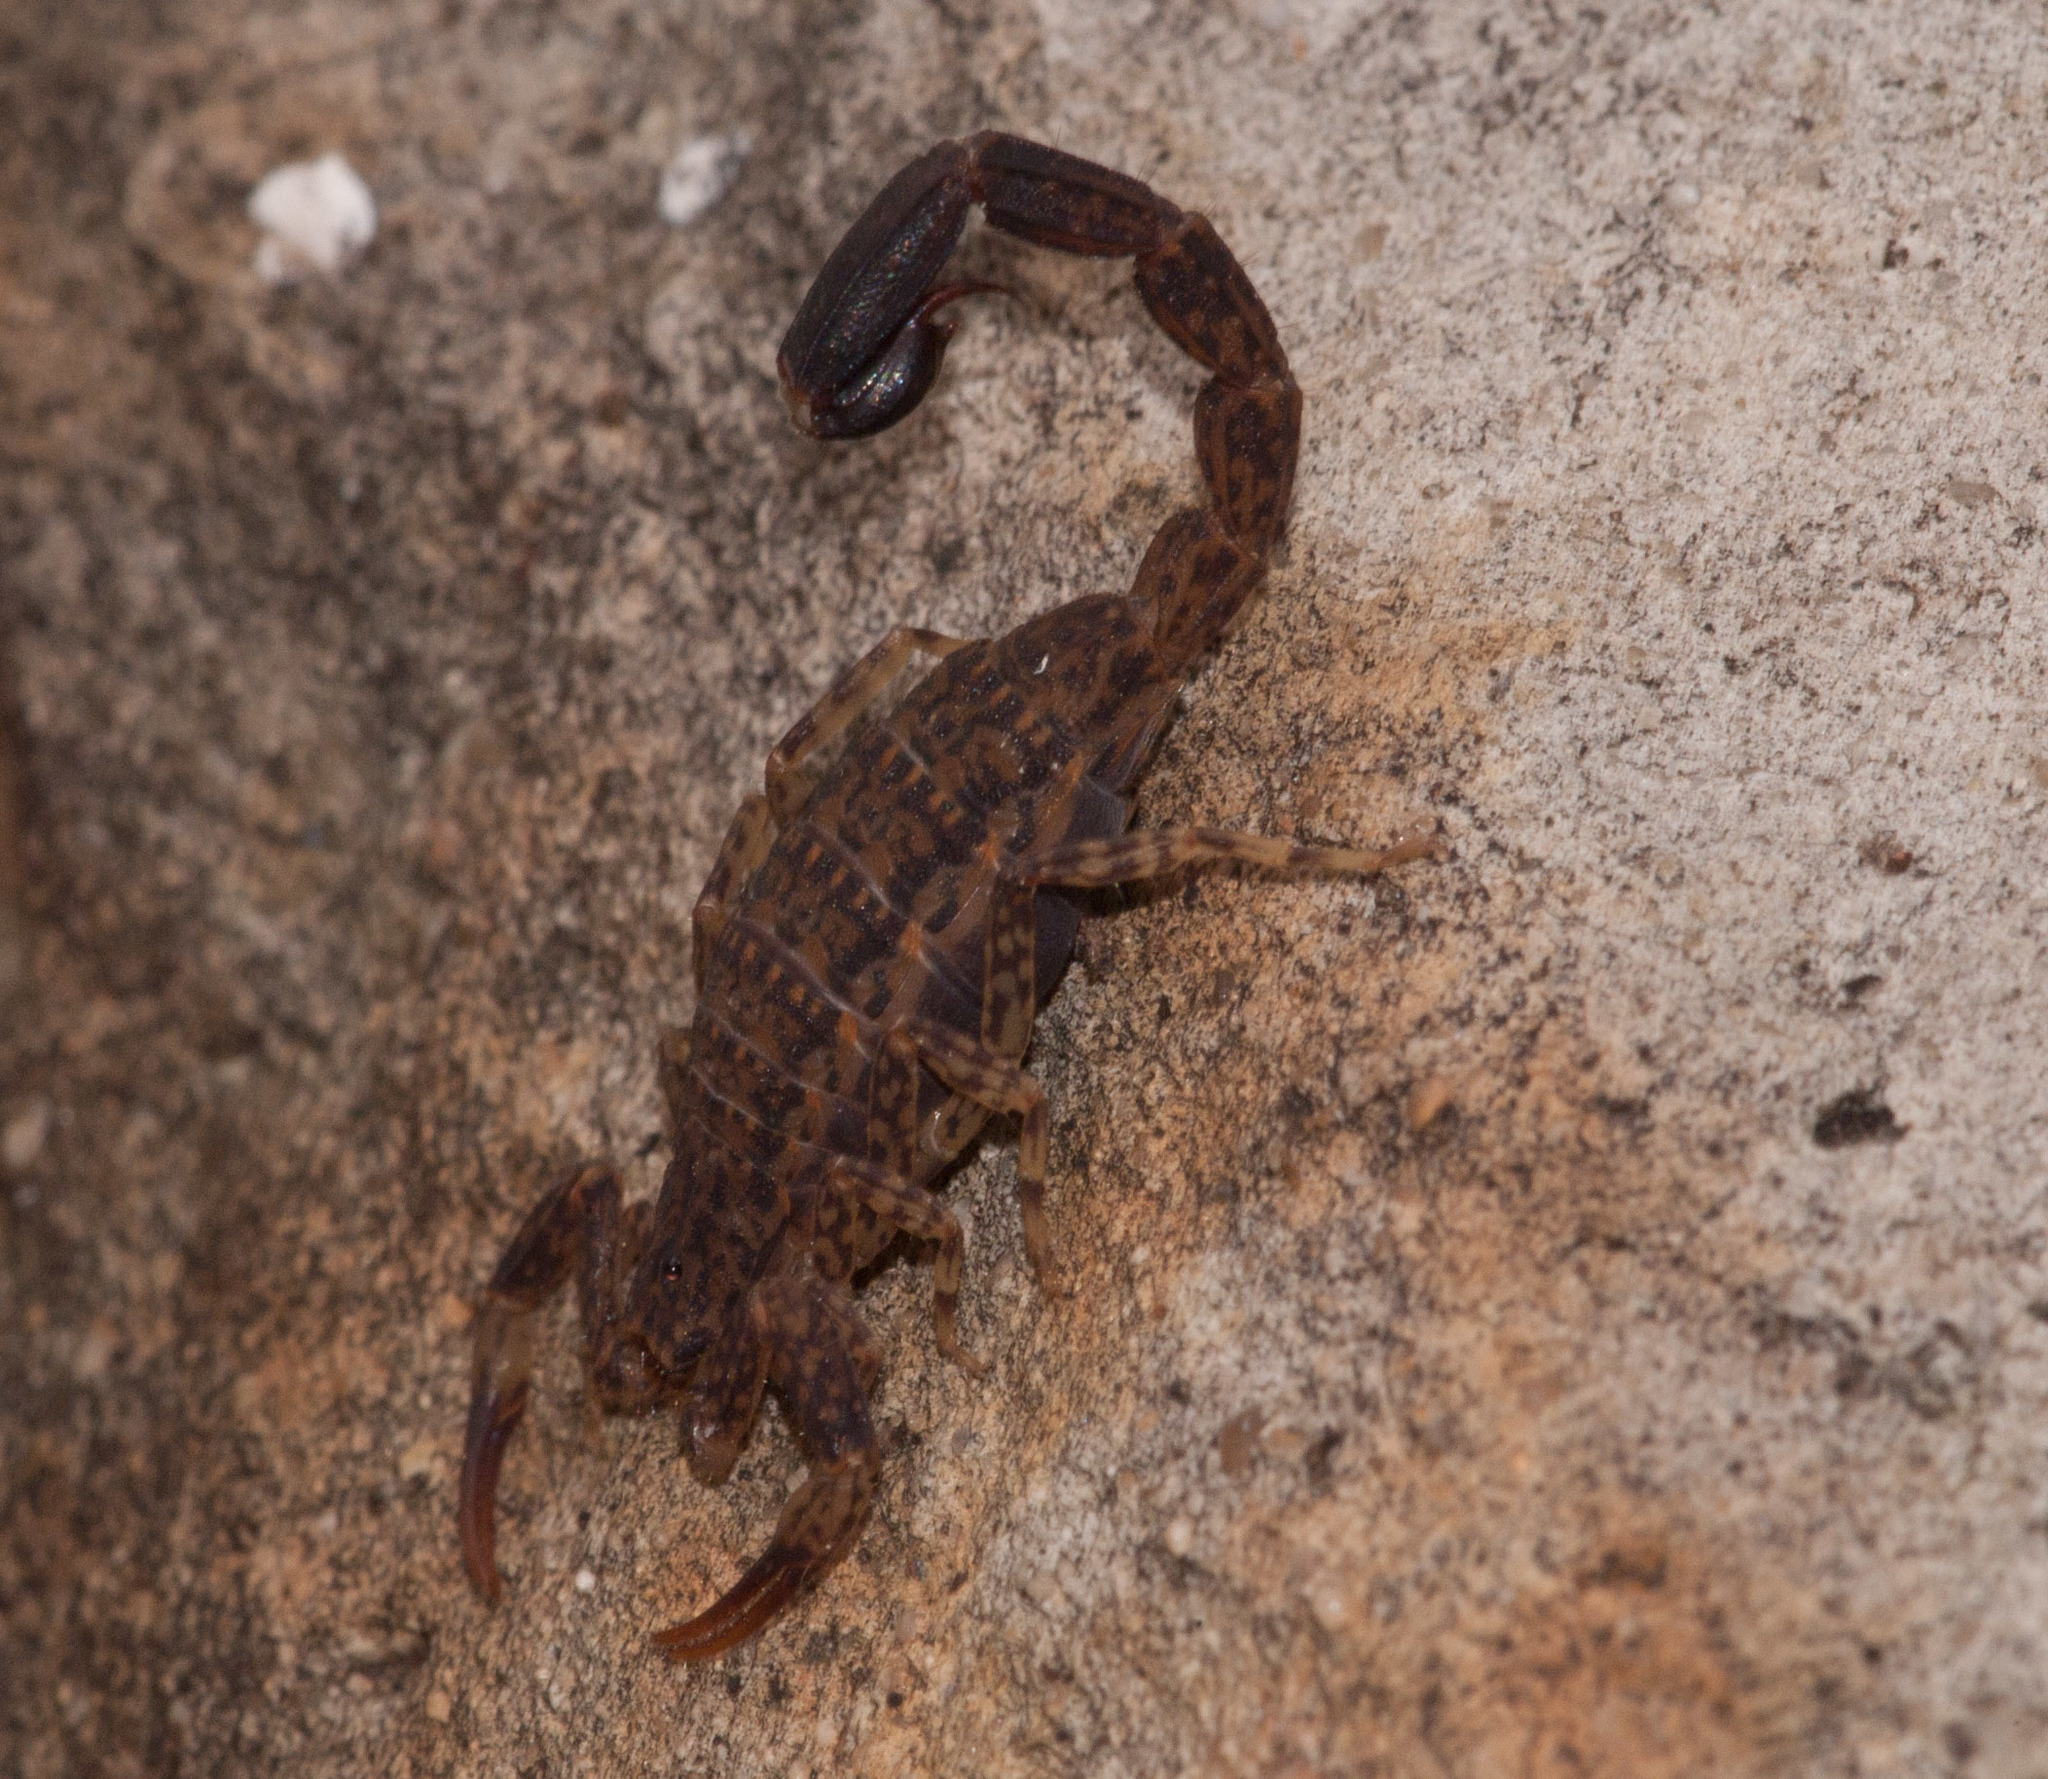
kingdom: Animalia
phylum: Arthropoda
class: Arachnida
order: Scorpiones
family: Buthidae
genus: Lychas
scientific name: Lychas marmoreus
